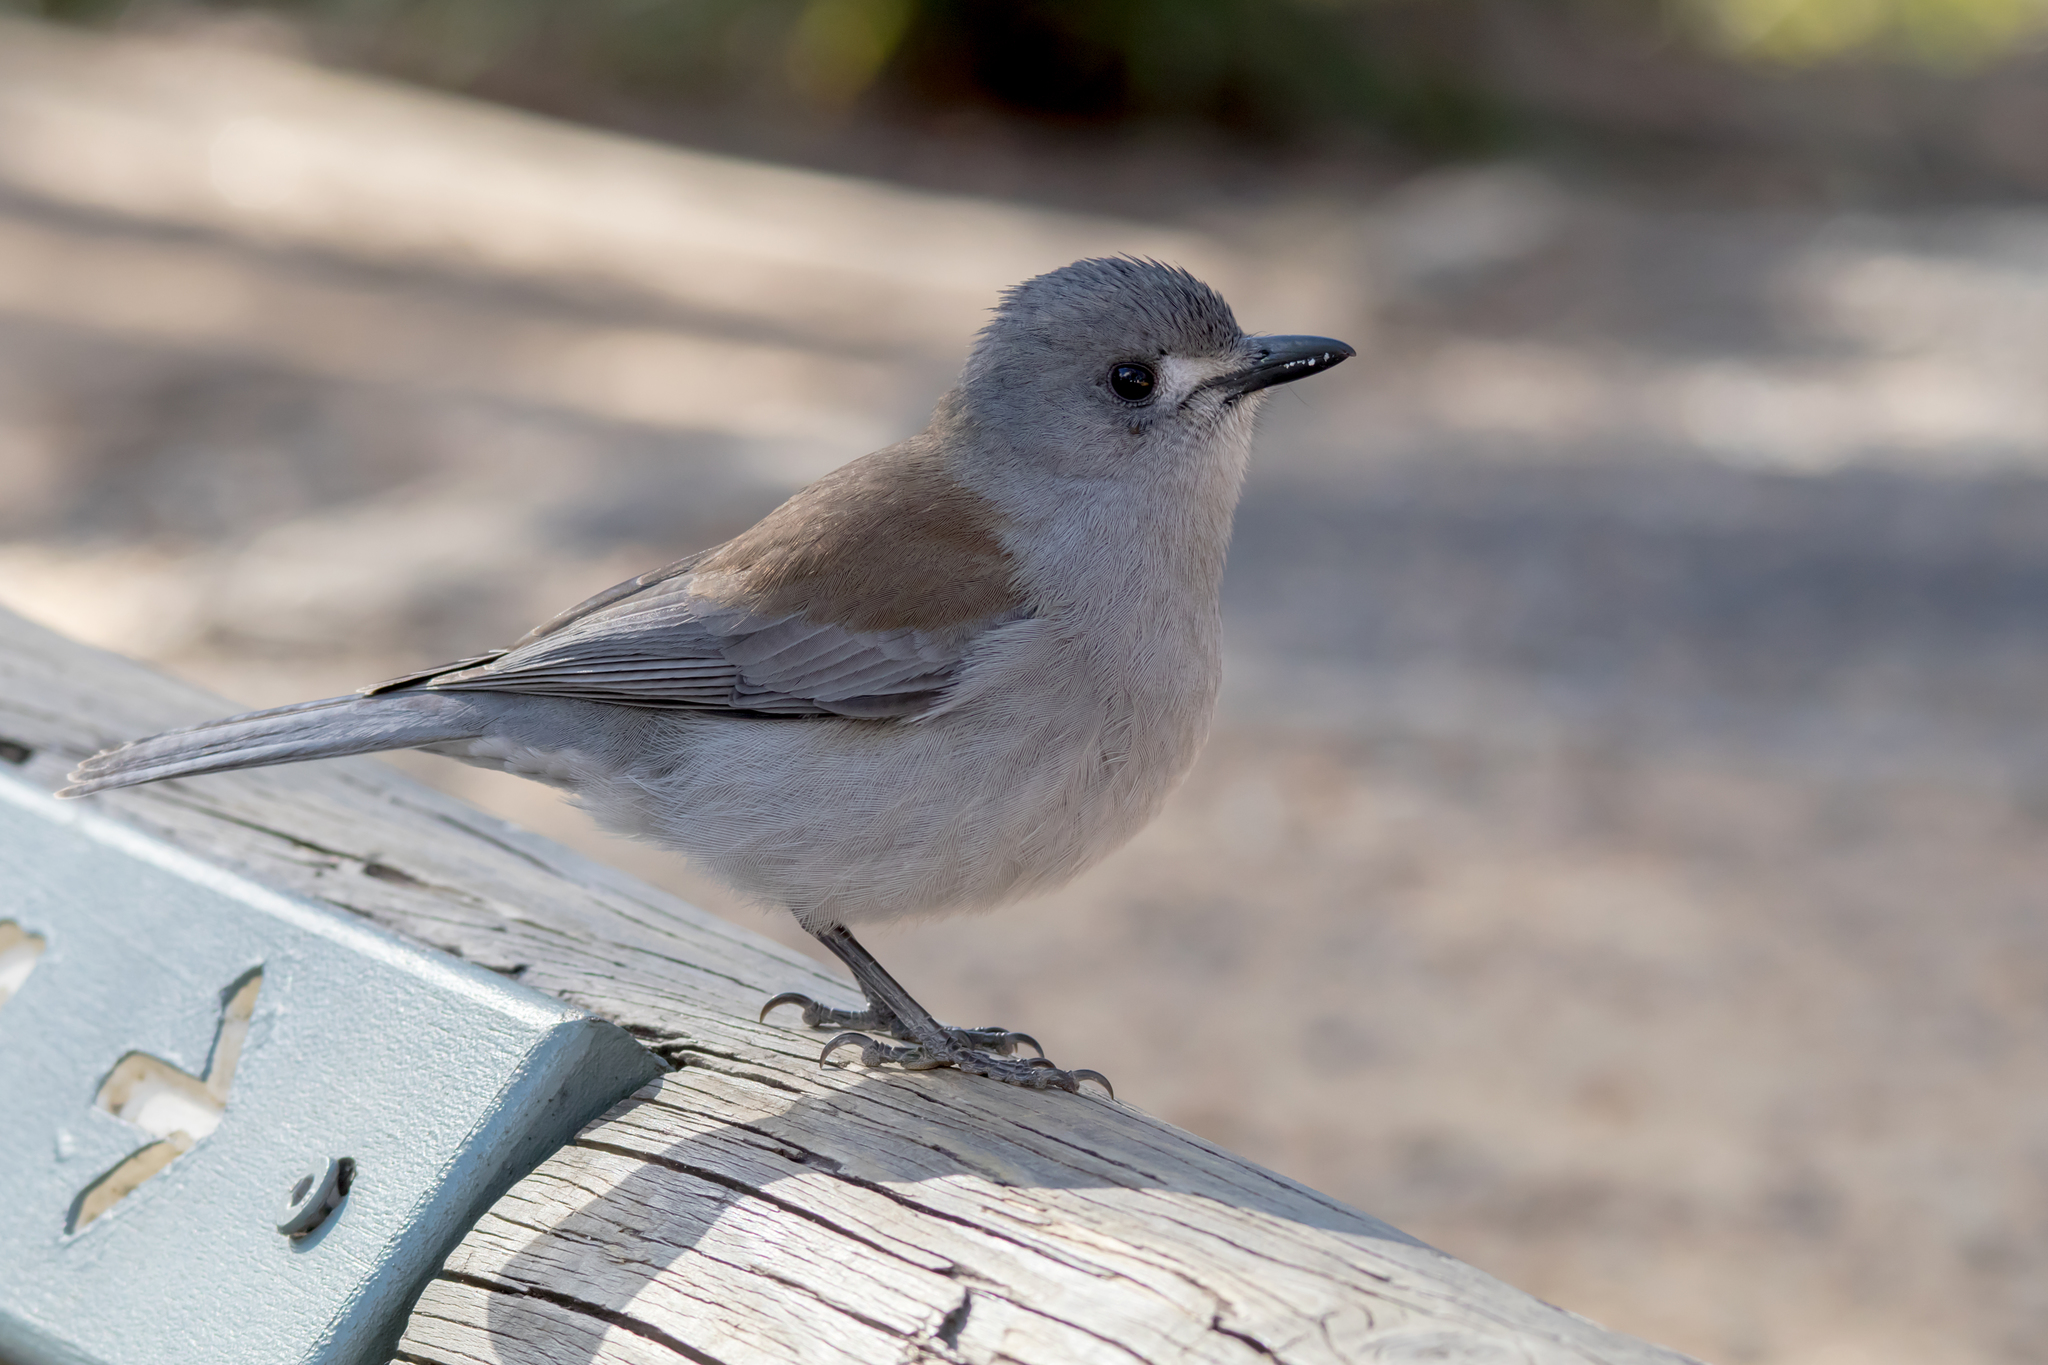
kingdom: Animalia
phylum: Chordata
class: Aves
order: Passeriformes
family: Pachycephalidae
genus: Colluricincla
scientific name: Colluricincla harmonica
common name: Grey shrikethrush
